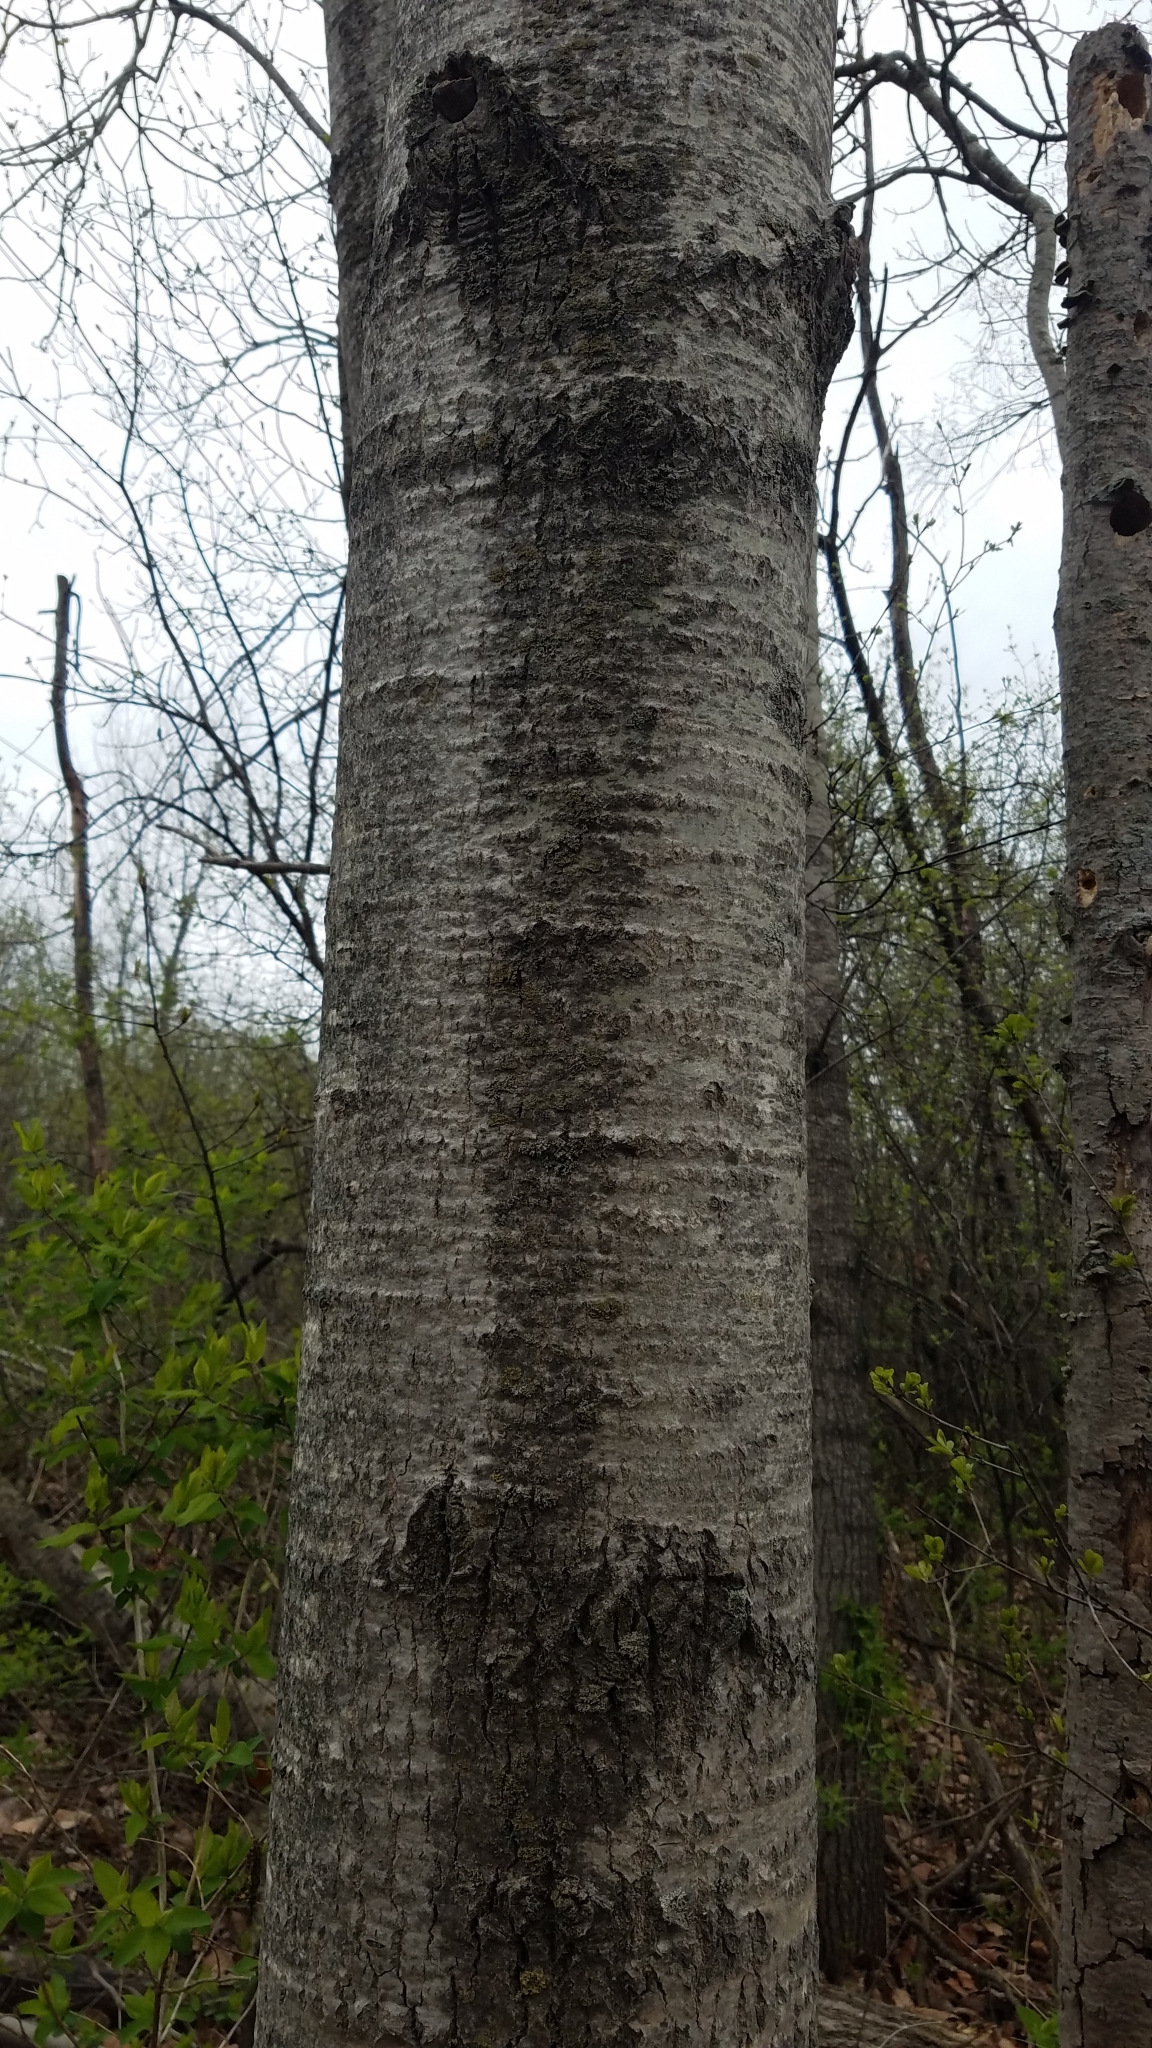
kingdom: Plantae
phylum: Tracheophyta
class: Magnoliopsida
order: Malpighiales
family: Salicaceae
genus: Populus
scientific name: Populus grandidentata
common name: Bigtooth aspen
